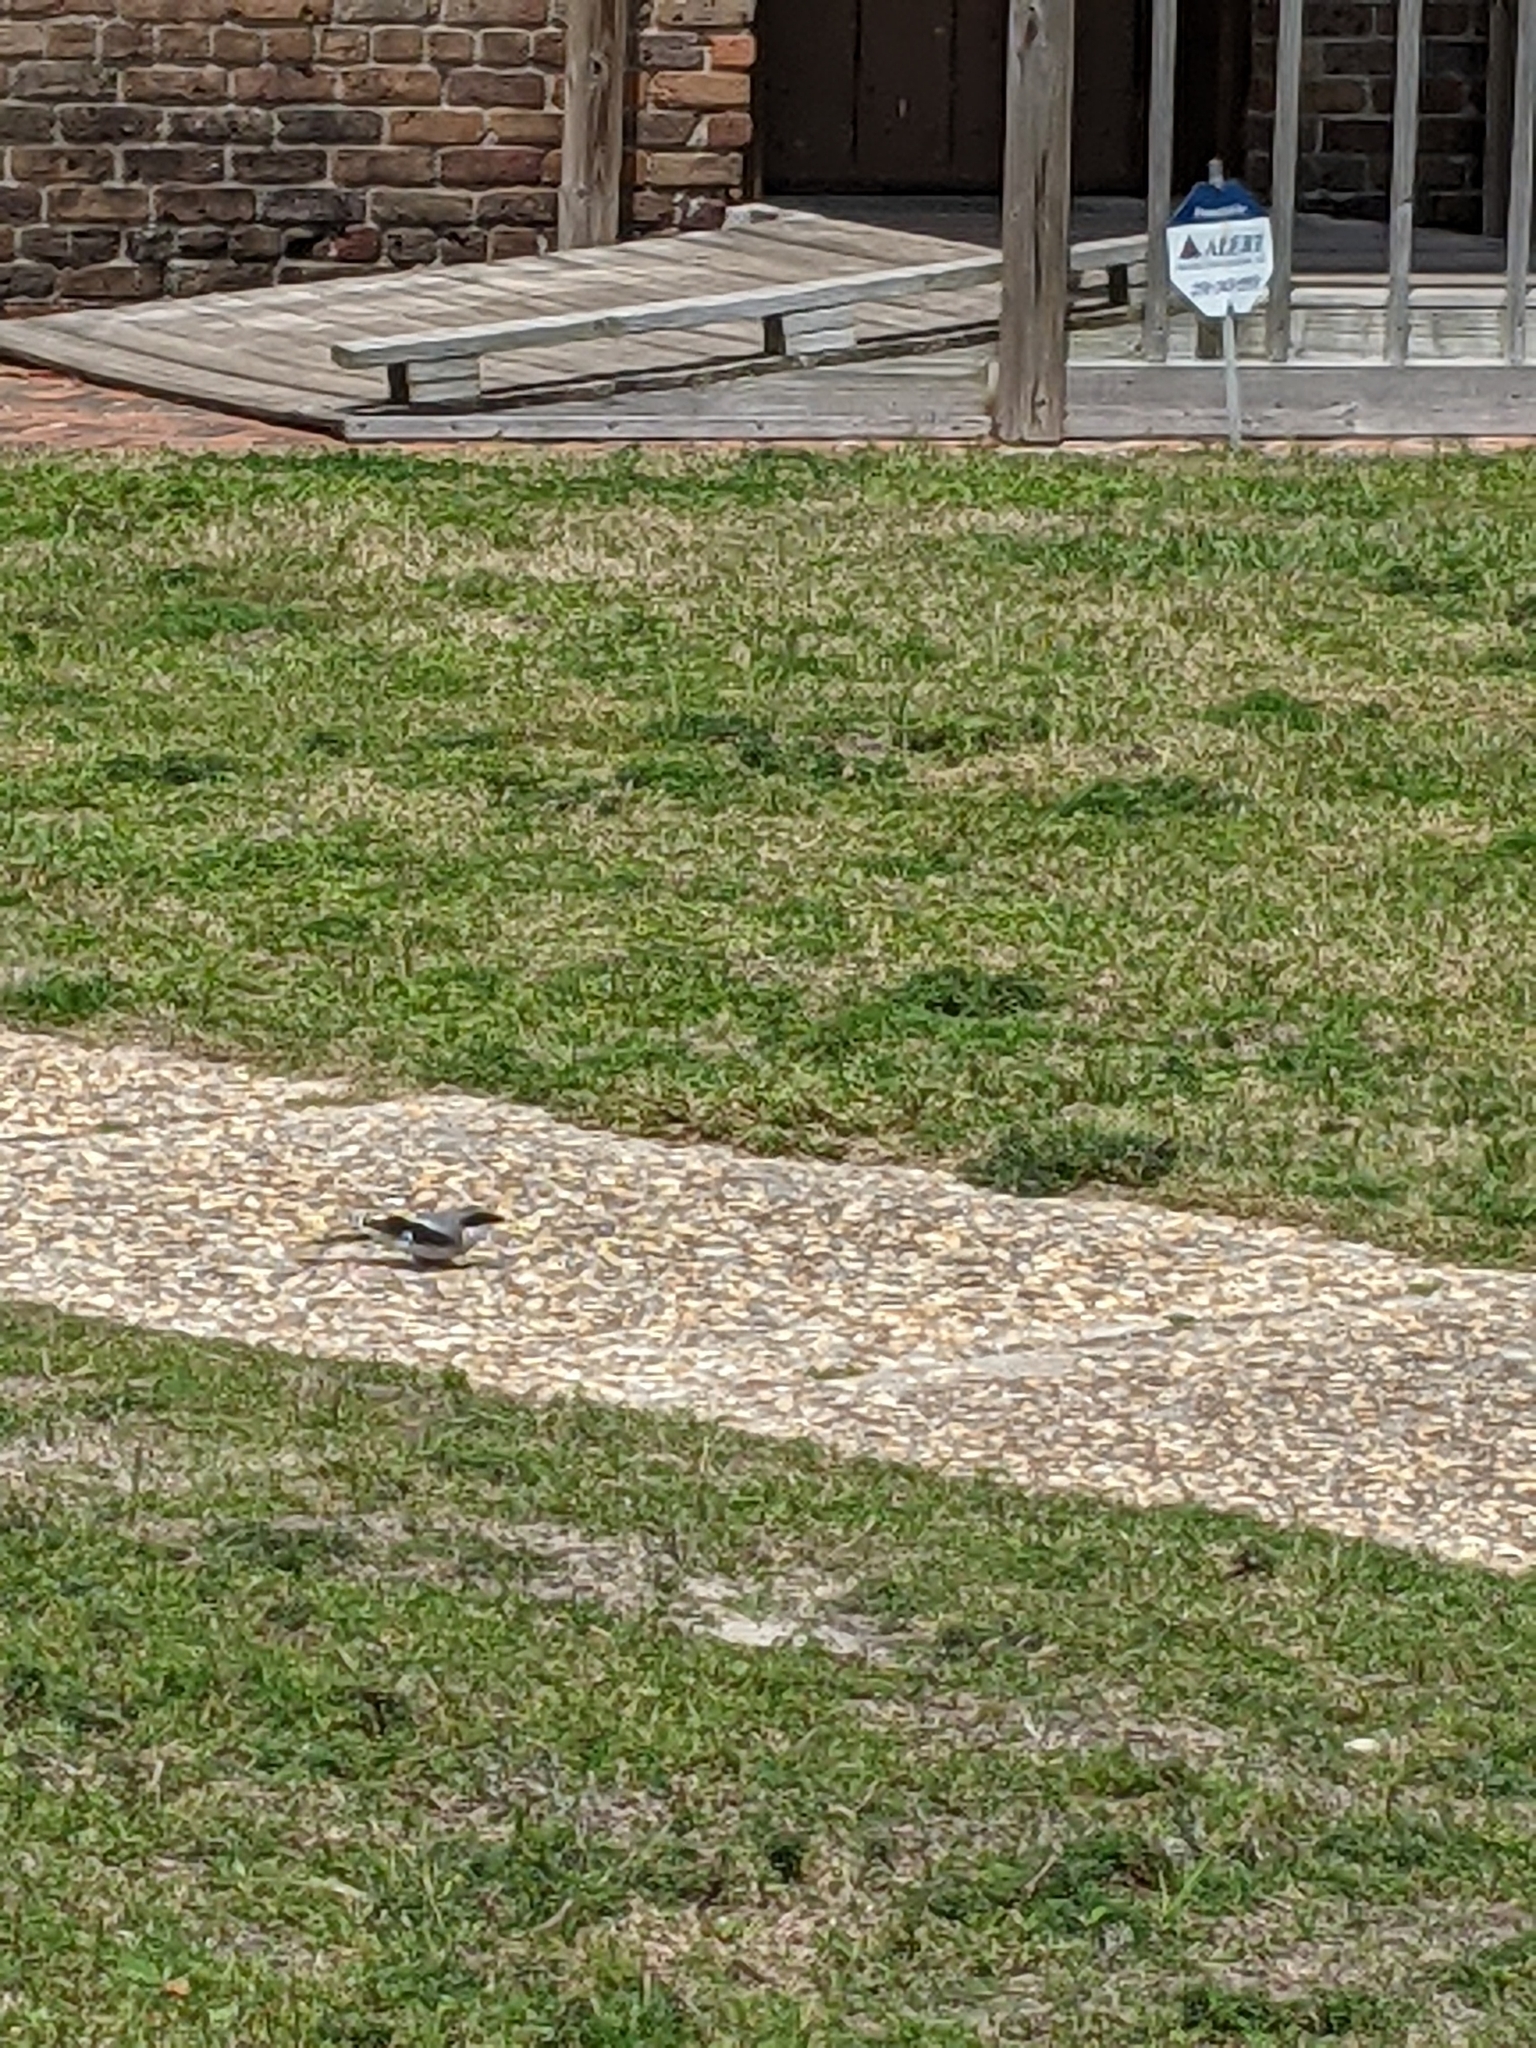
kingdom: Animalia
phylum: Chordata
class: Aves
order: Passeriformes
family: Laniidae
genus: Lanius
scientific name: Lanius ludovicianus
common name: Loggerhead shrike
